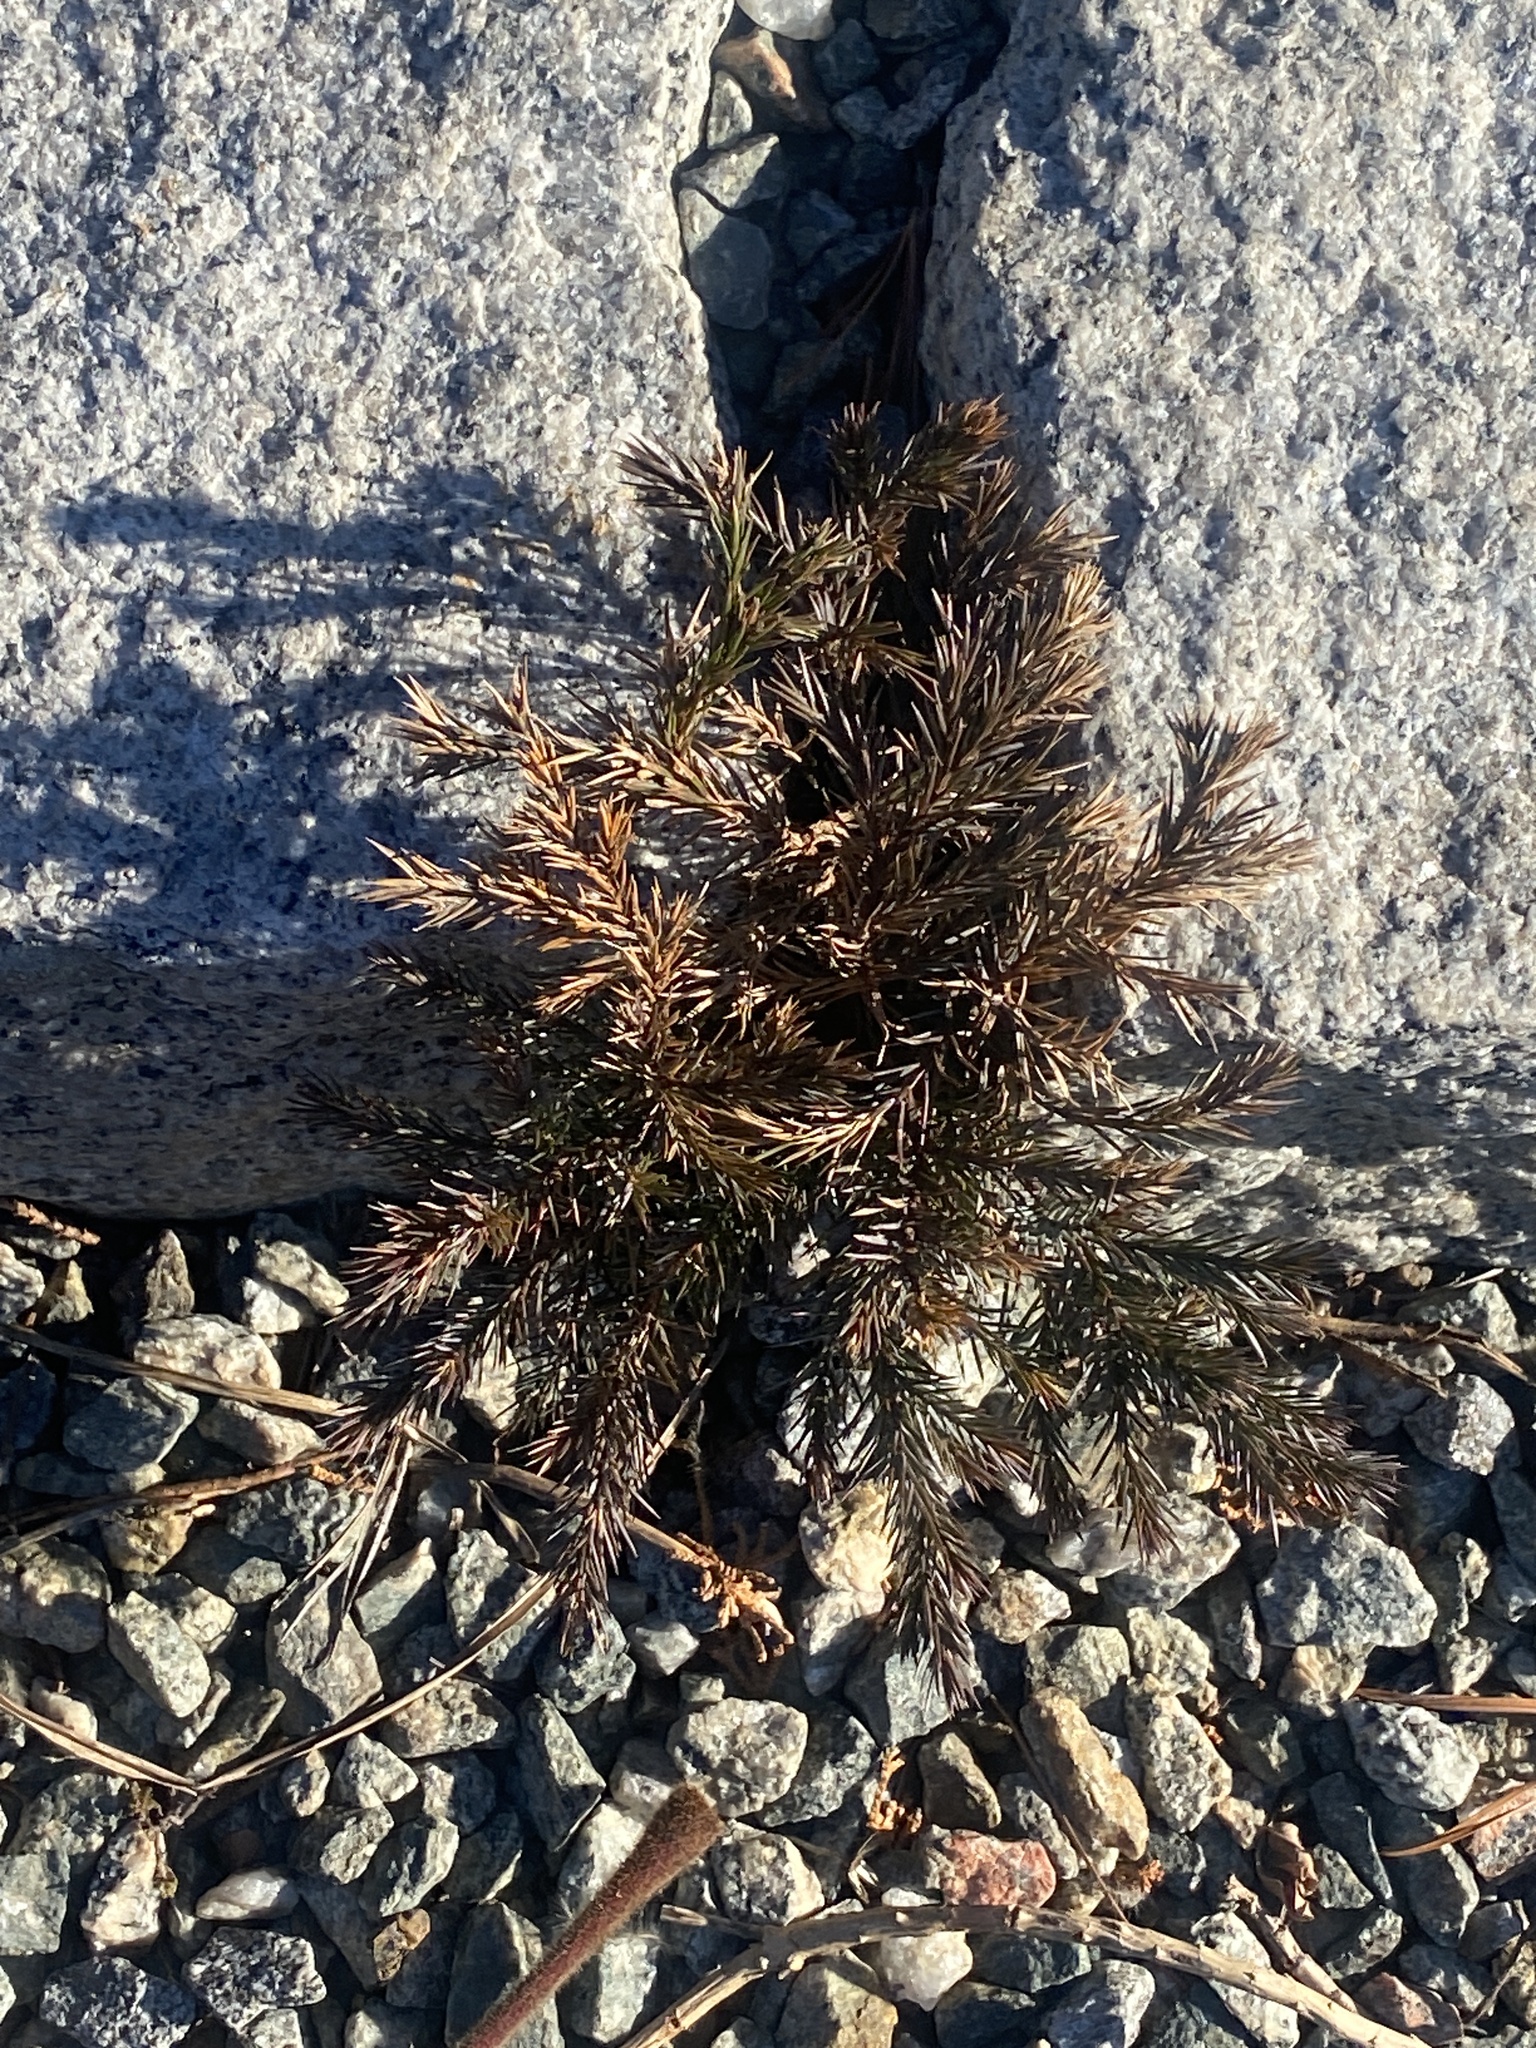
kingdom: Plantae
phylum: Tracheophyta
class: Pinopsida
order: Pinales
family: Cupressaceae
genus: Juniperus
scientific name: Juniperus virginiana
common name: Red juniper
